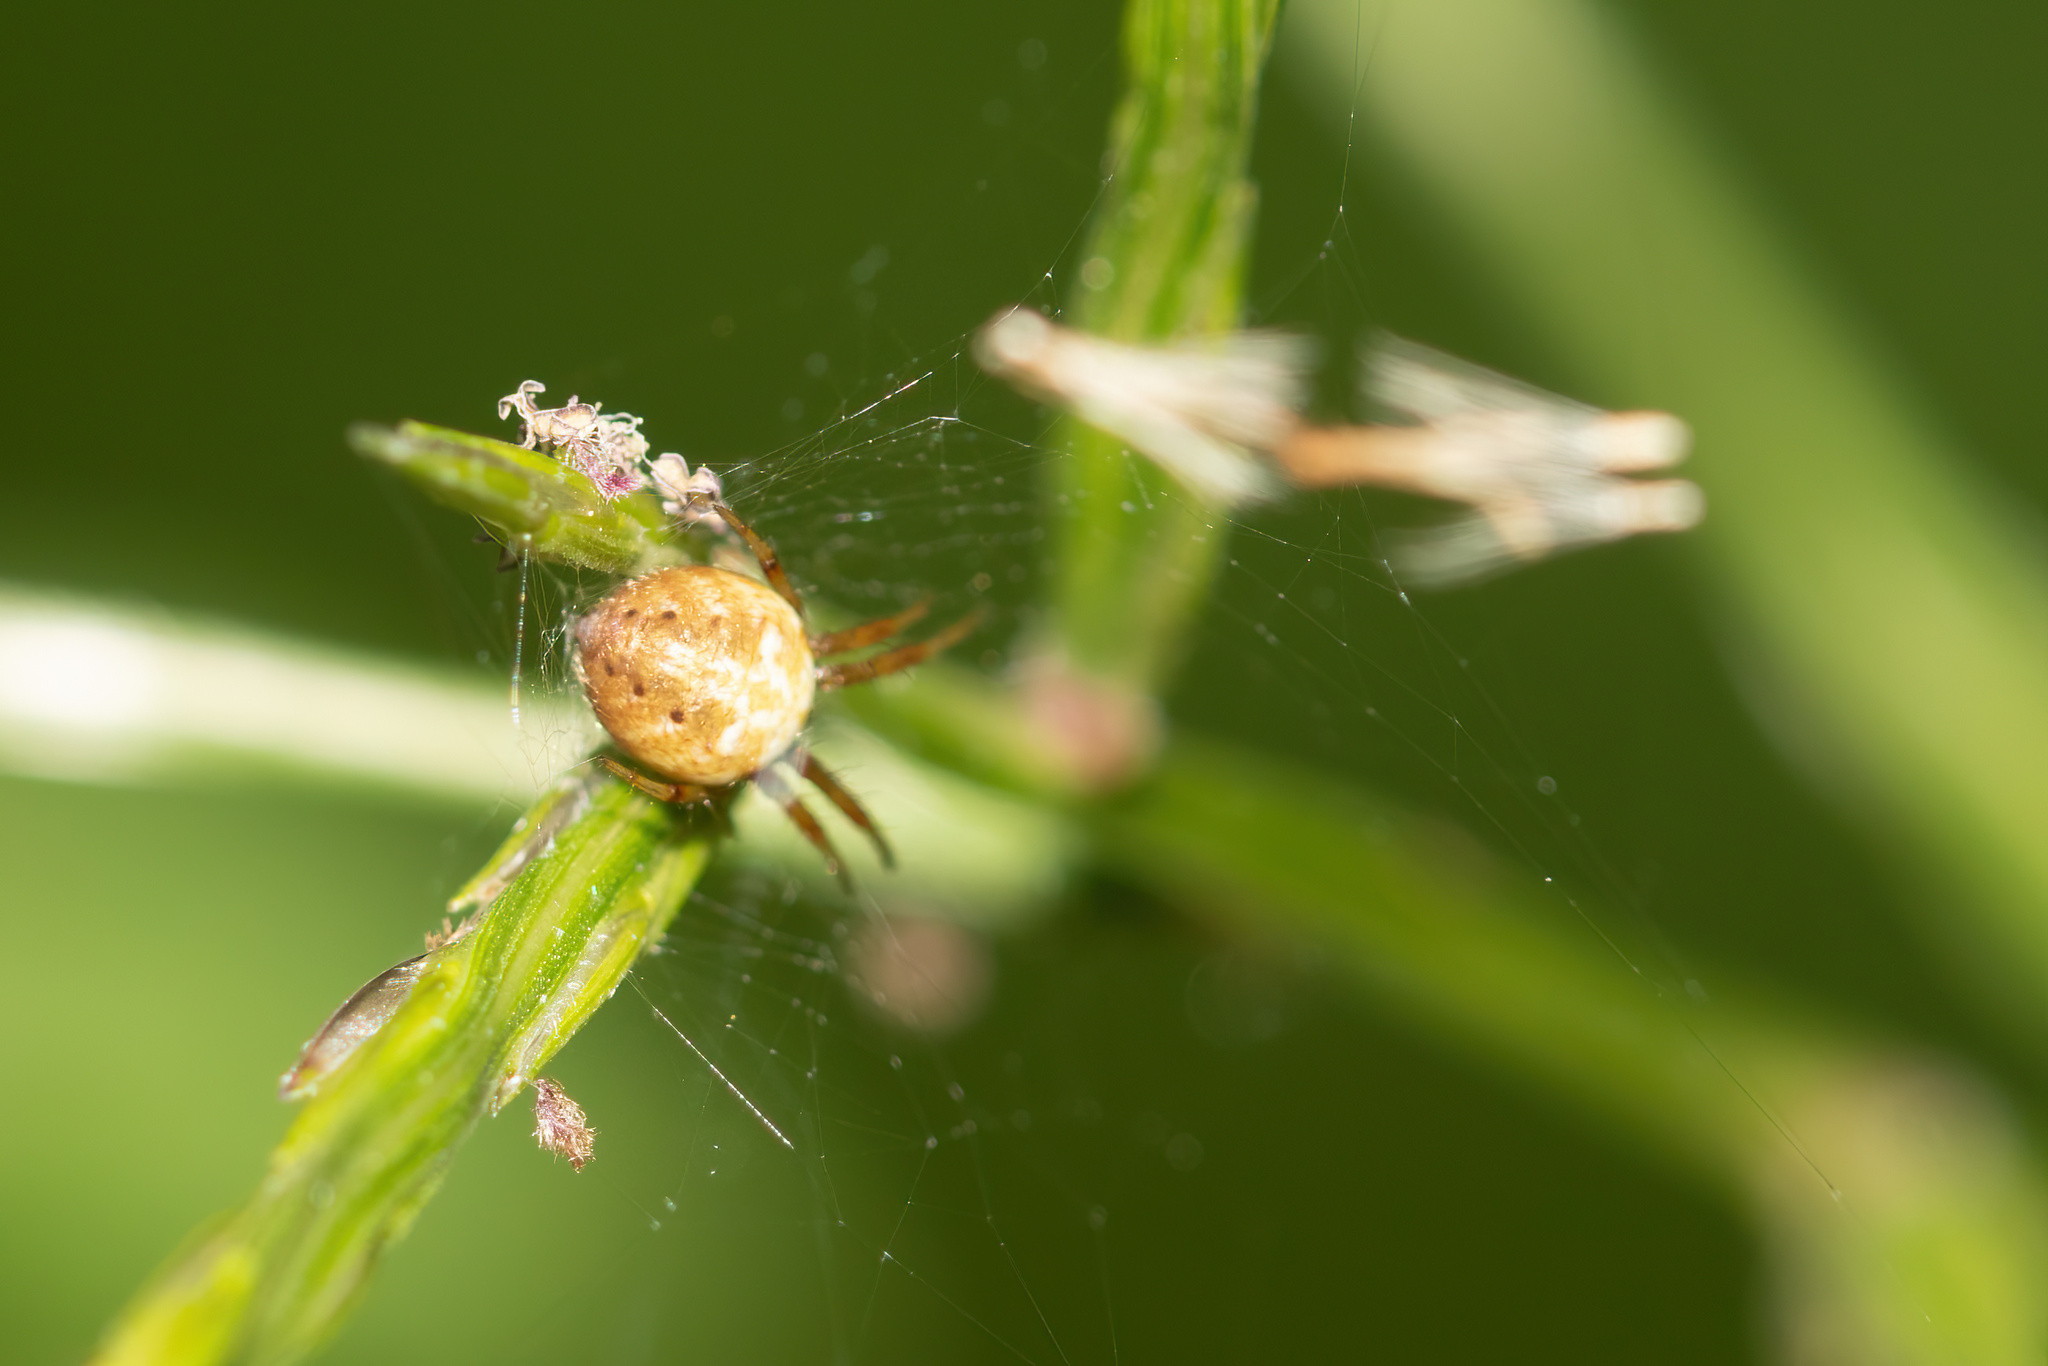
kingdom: Animalia
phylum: Arthropoda
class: Arachnida
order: Araneae
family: Araneidae
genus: Neoscona
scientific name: Neoscona arabesca
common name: Orb weavers
